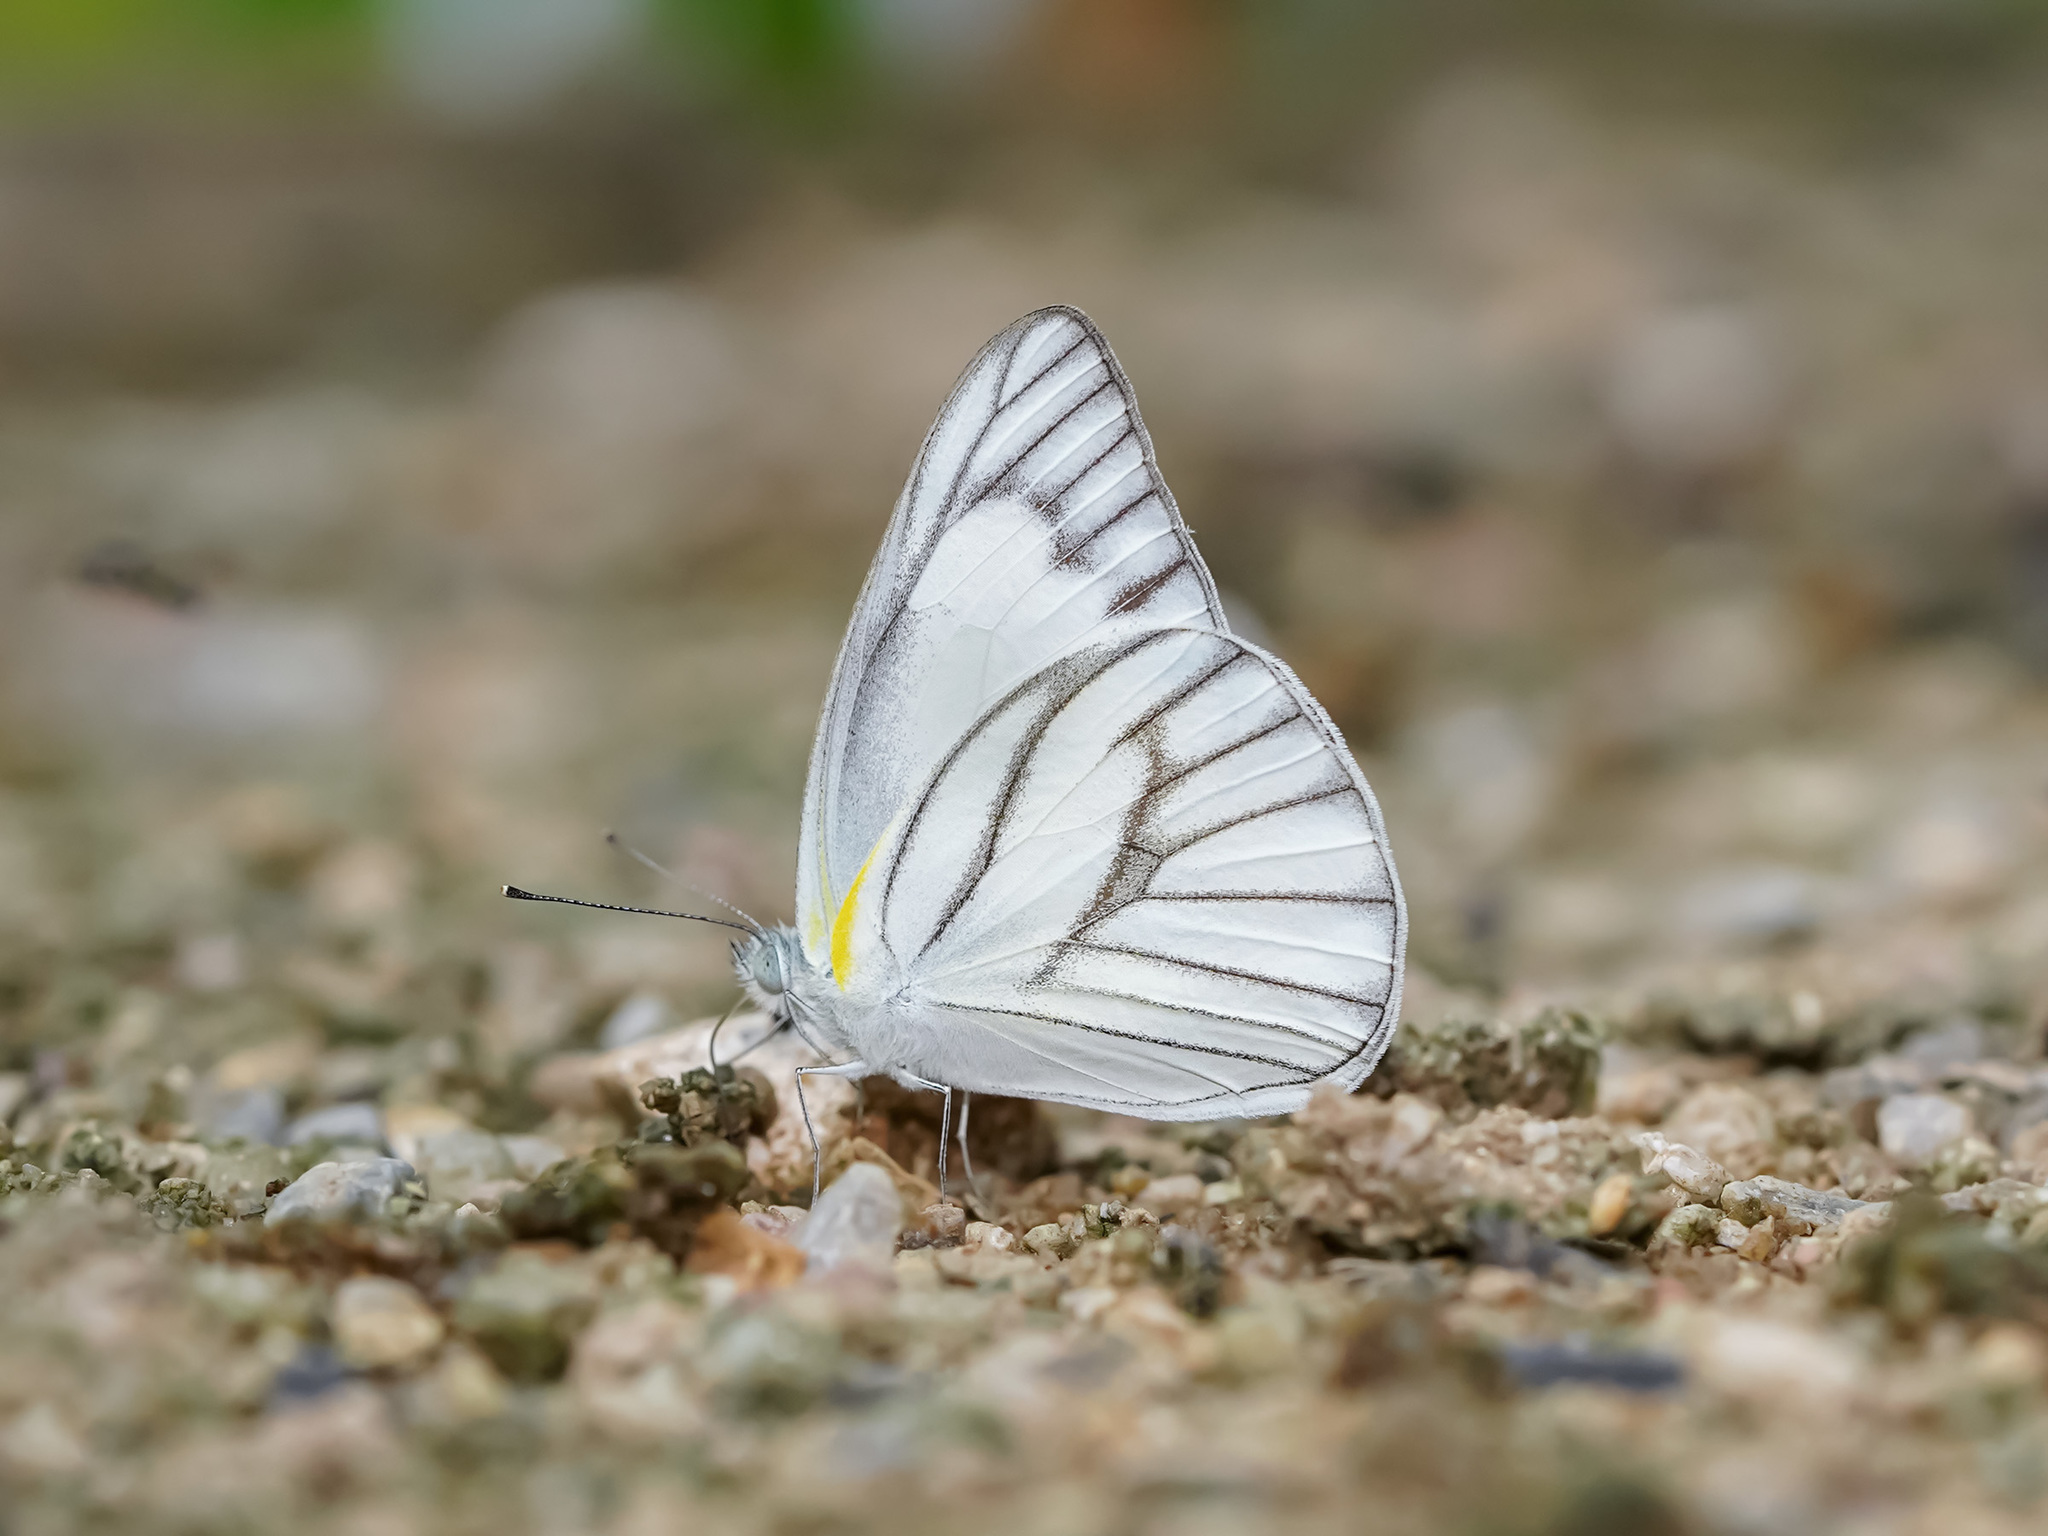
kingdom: Animalia
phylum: Arthropoda
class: Insecta
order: Lepidoptera
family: Pieridae
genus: Appias
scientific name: Appias libythea
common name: Striped albatross
